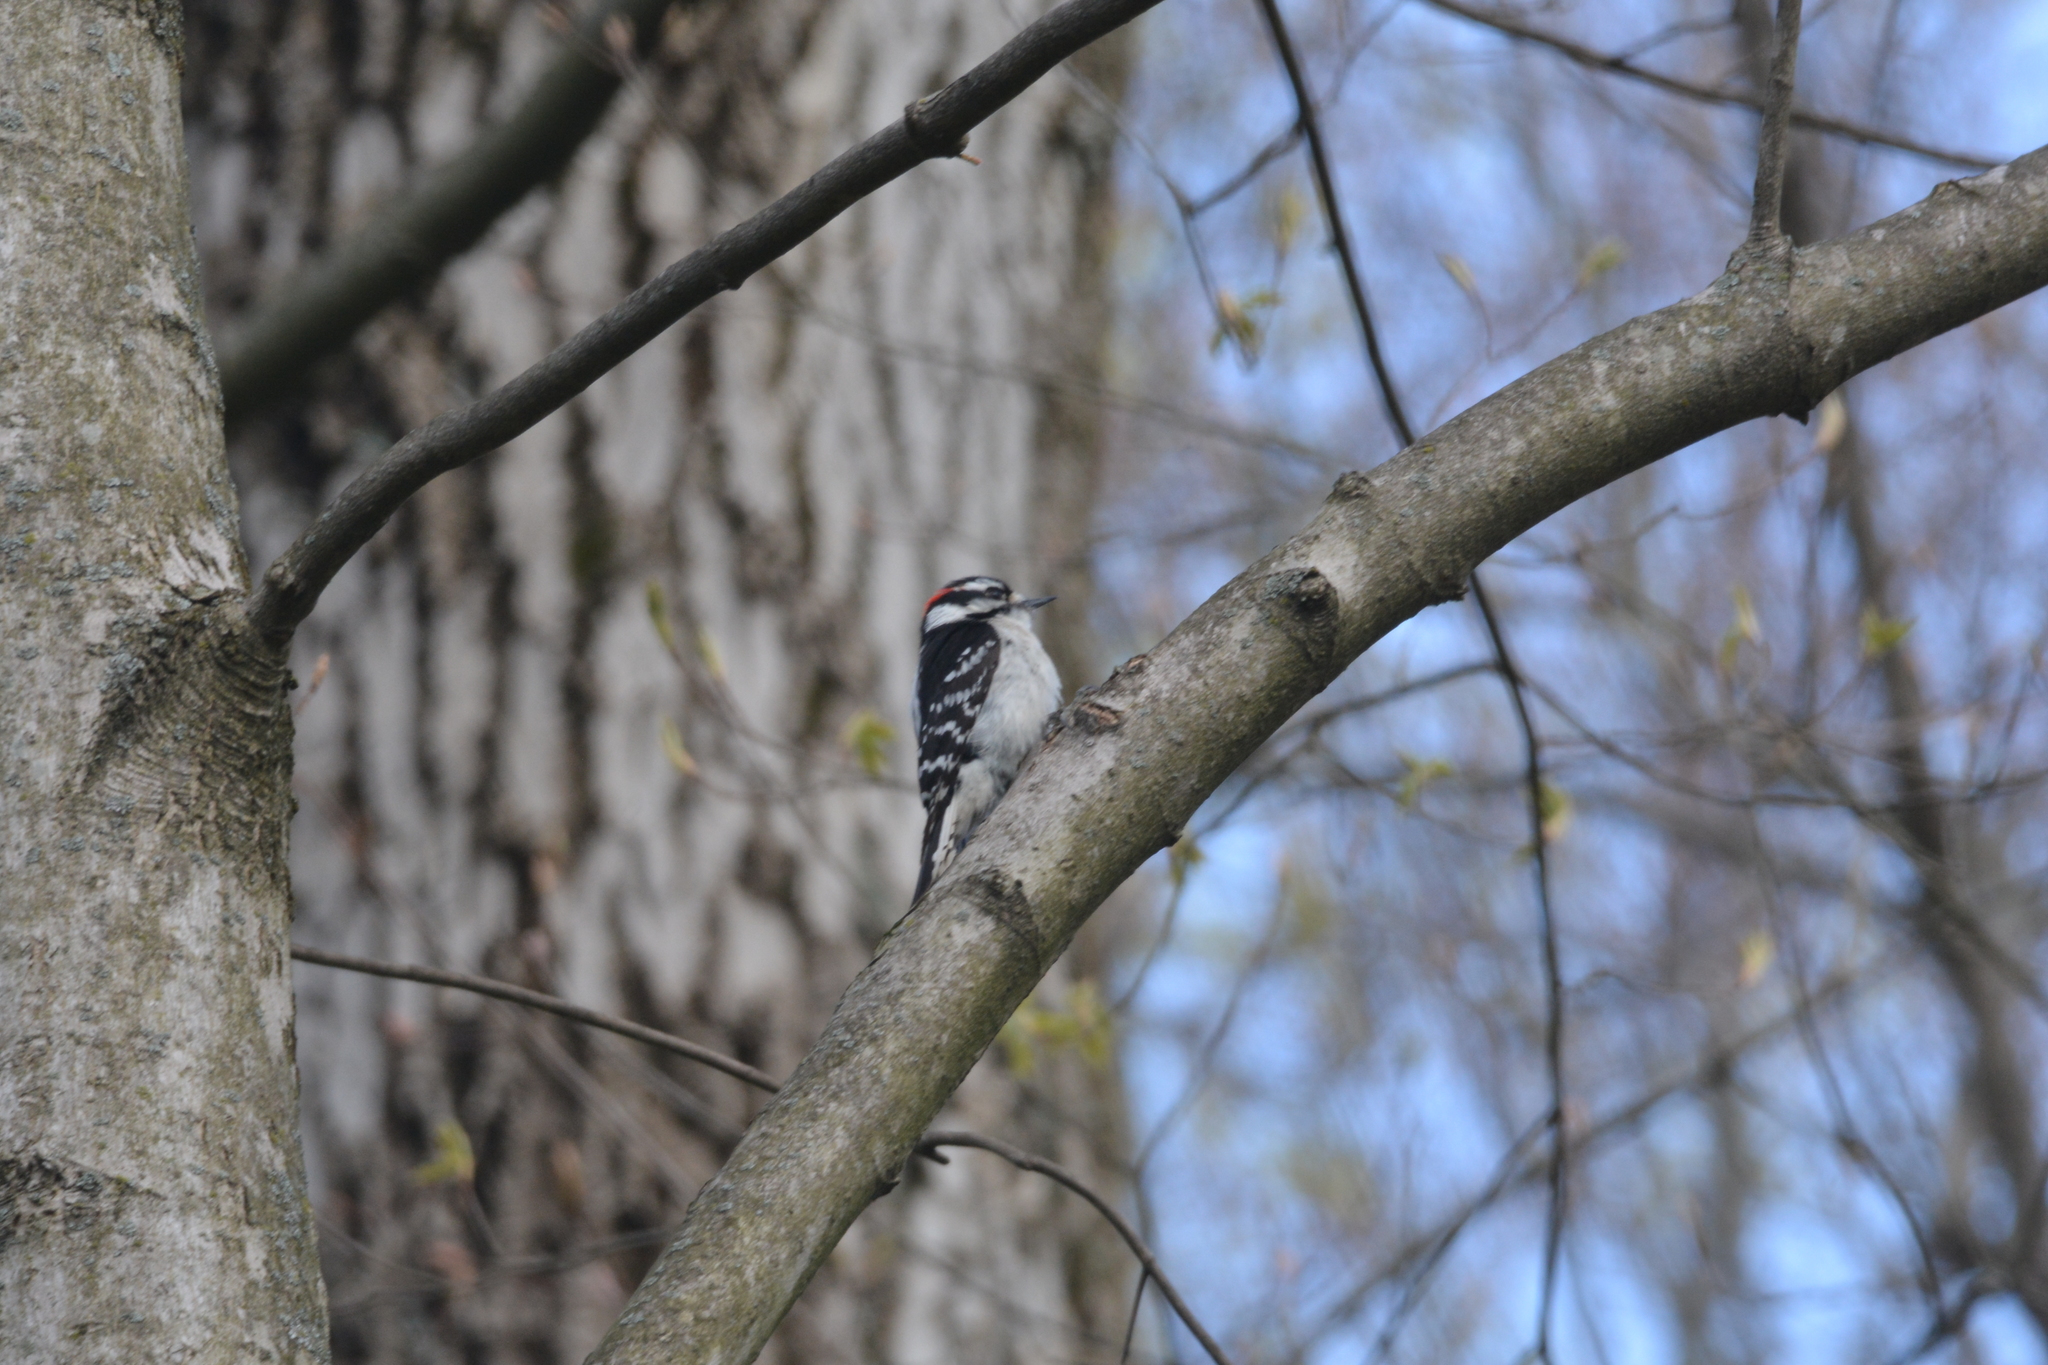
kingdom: Animalia
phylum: Chordata
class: Aves
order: Piciformes
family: Picidae
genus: Dryobates
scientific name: Dryobates pubescens
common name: Downy woodpecker
